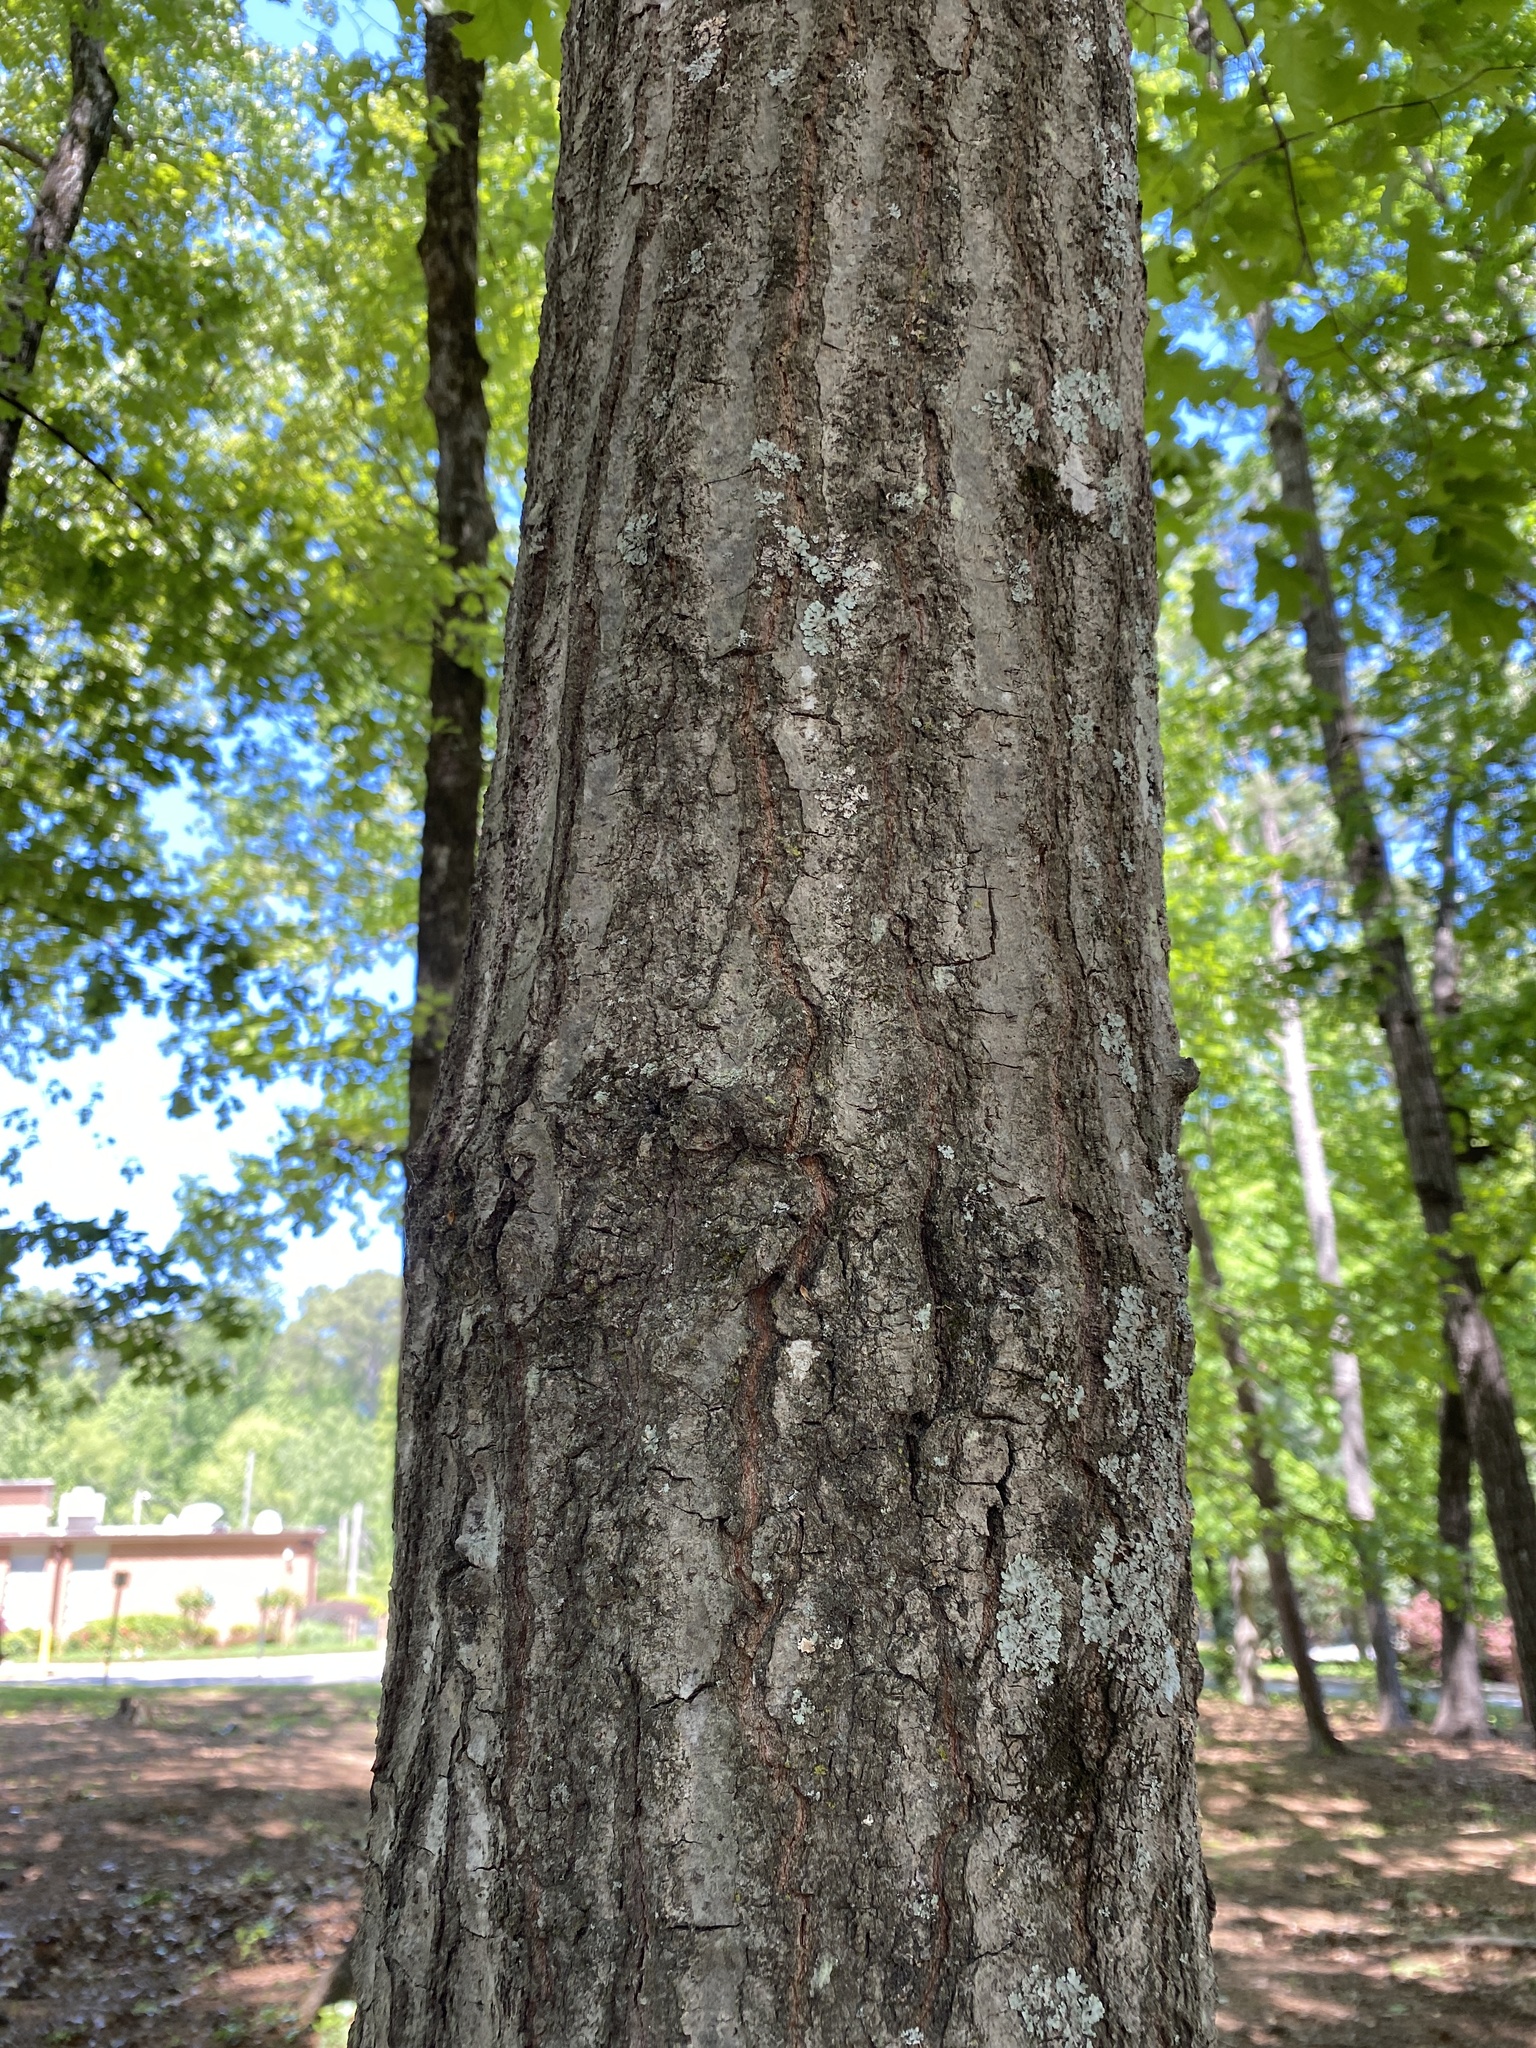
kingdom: Plantae
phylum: Tracheophyta
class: Magnoliopsida
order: Fagales
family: Fagaceae
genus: Quercus
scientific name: Quercus coccinea
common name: Scarlet oak
